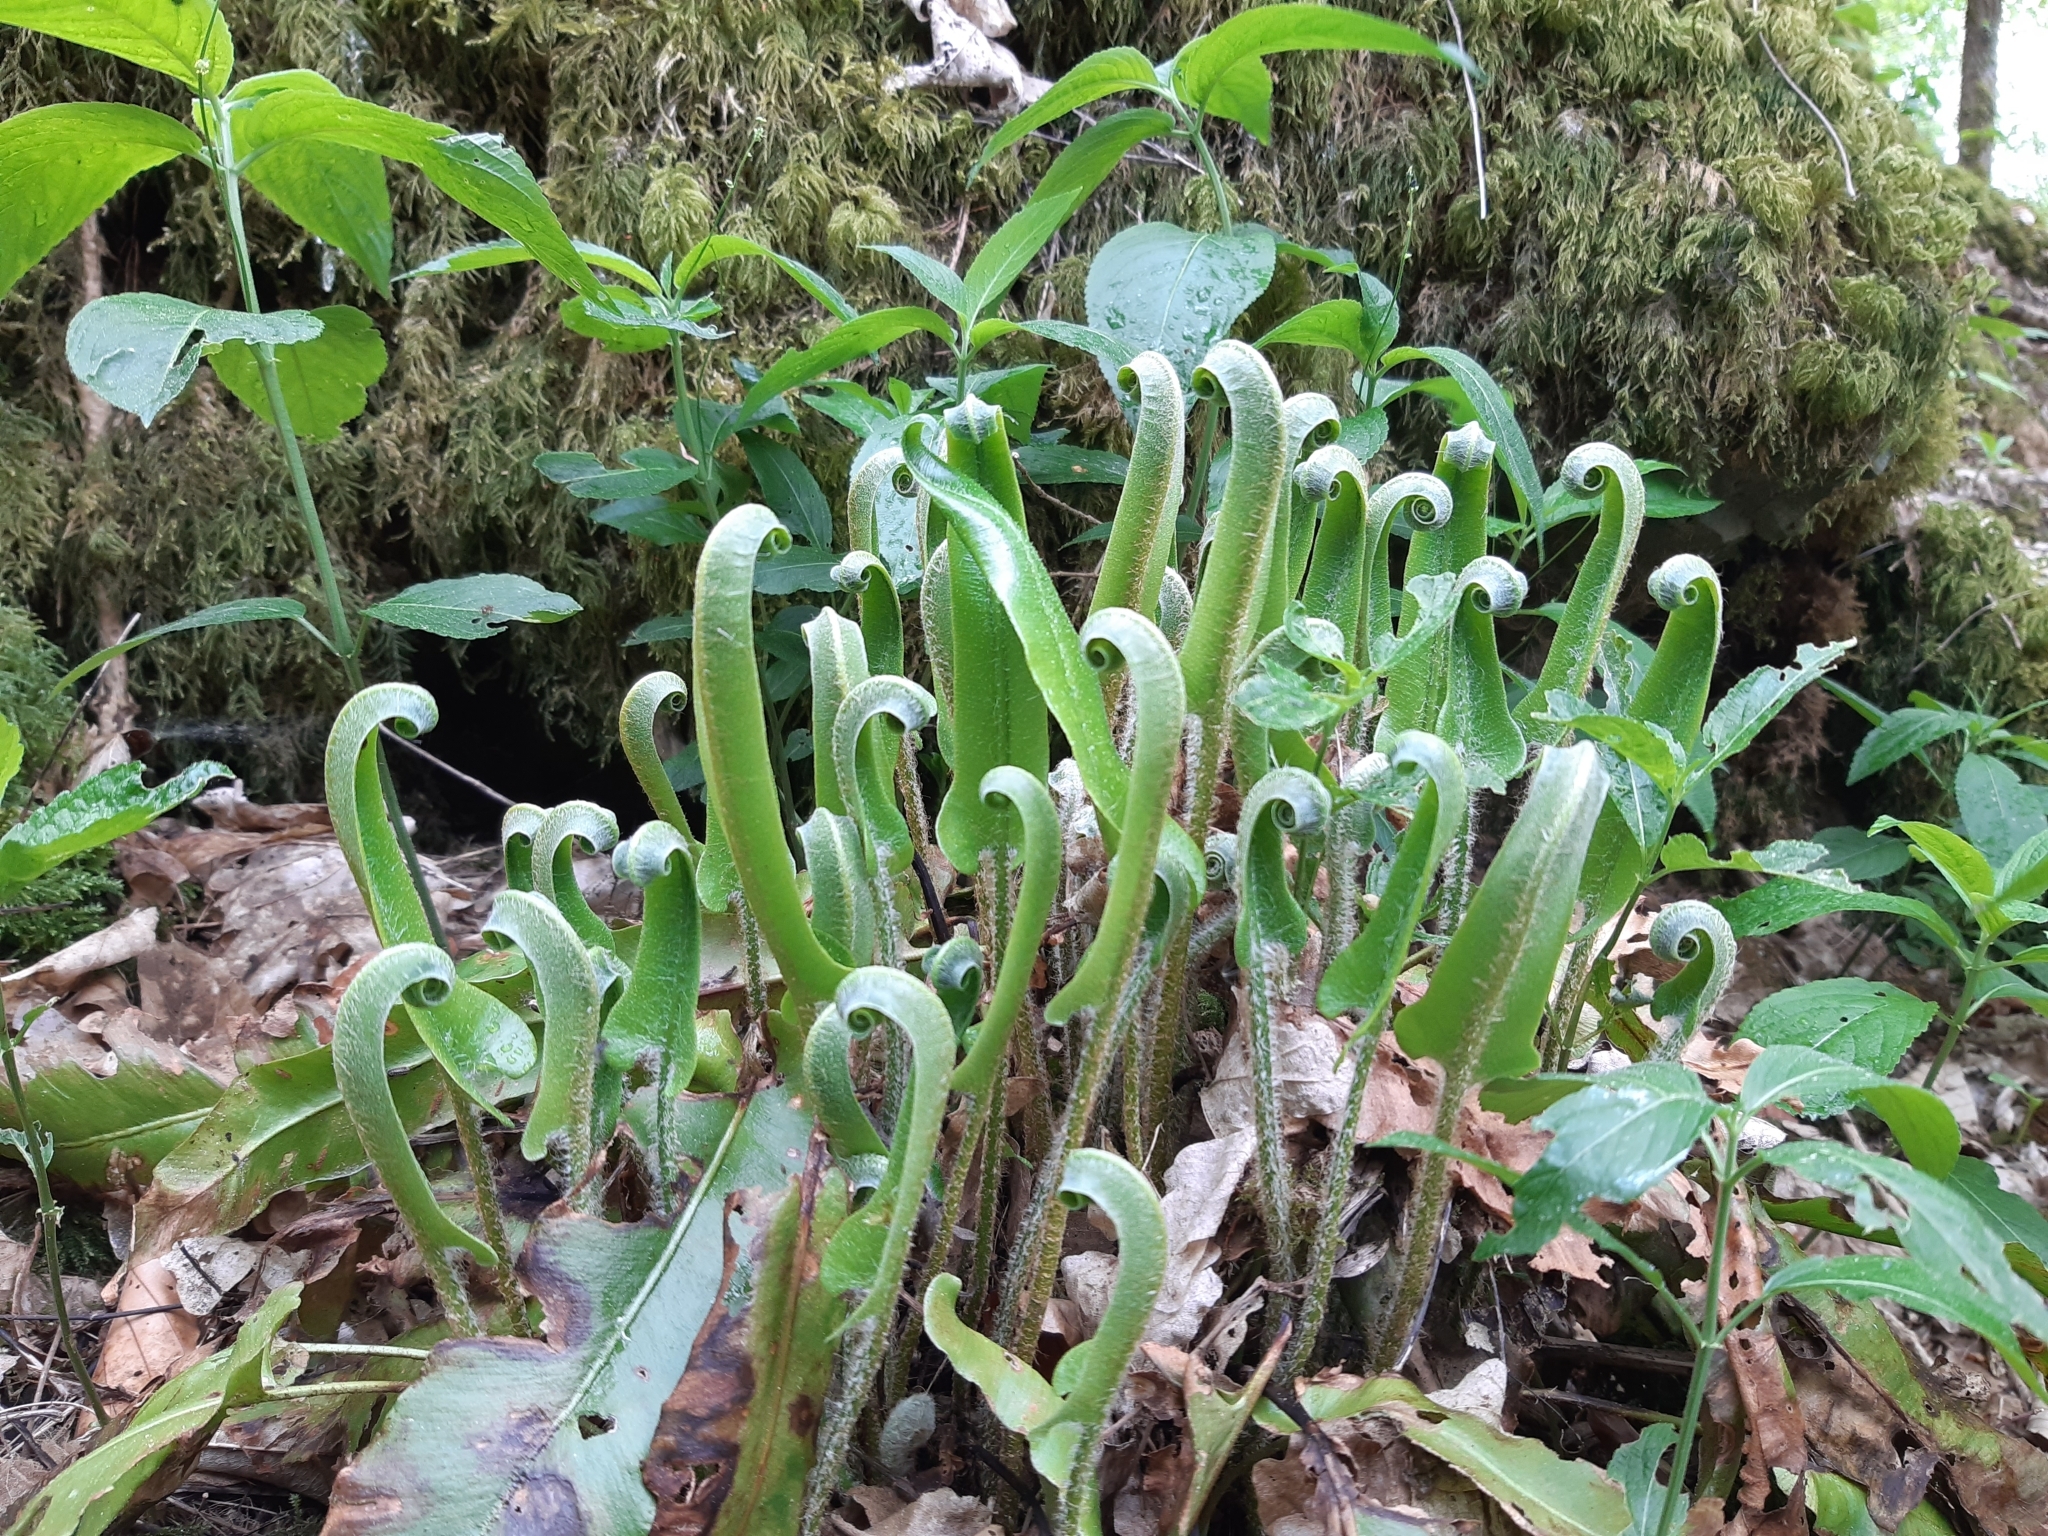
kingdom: Plantae
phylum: Tracheophyta
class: Polypodiopsida
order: Polypodiales
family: Aspleniaceae
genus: Asplenium
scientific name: Asplenium scolopendrium
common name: Hart's-tongue fern
